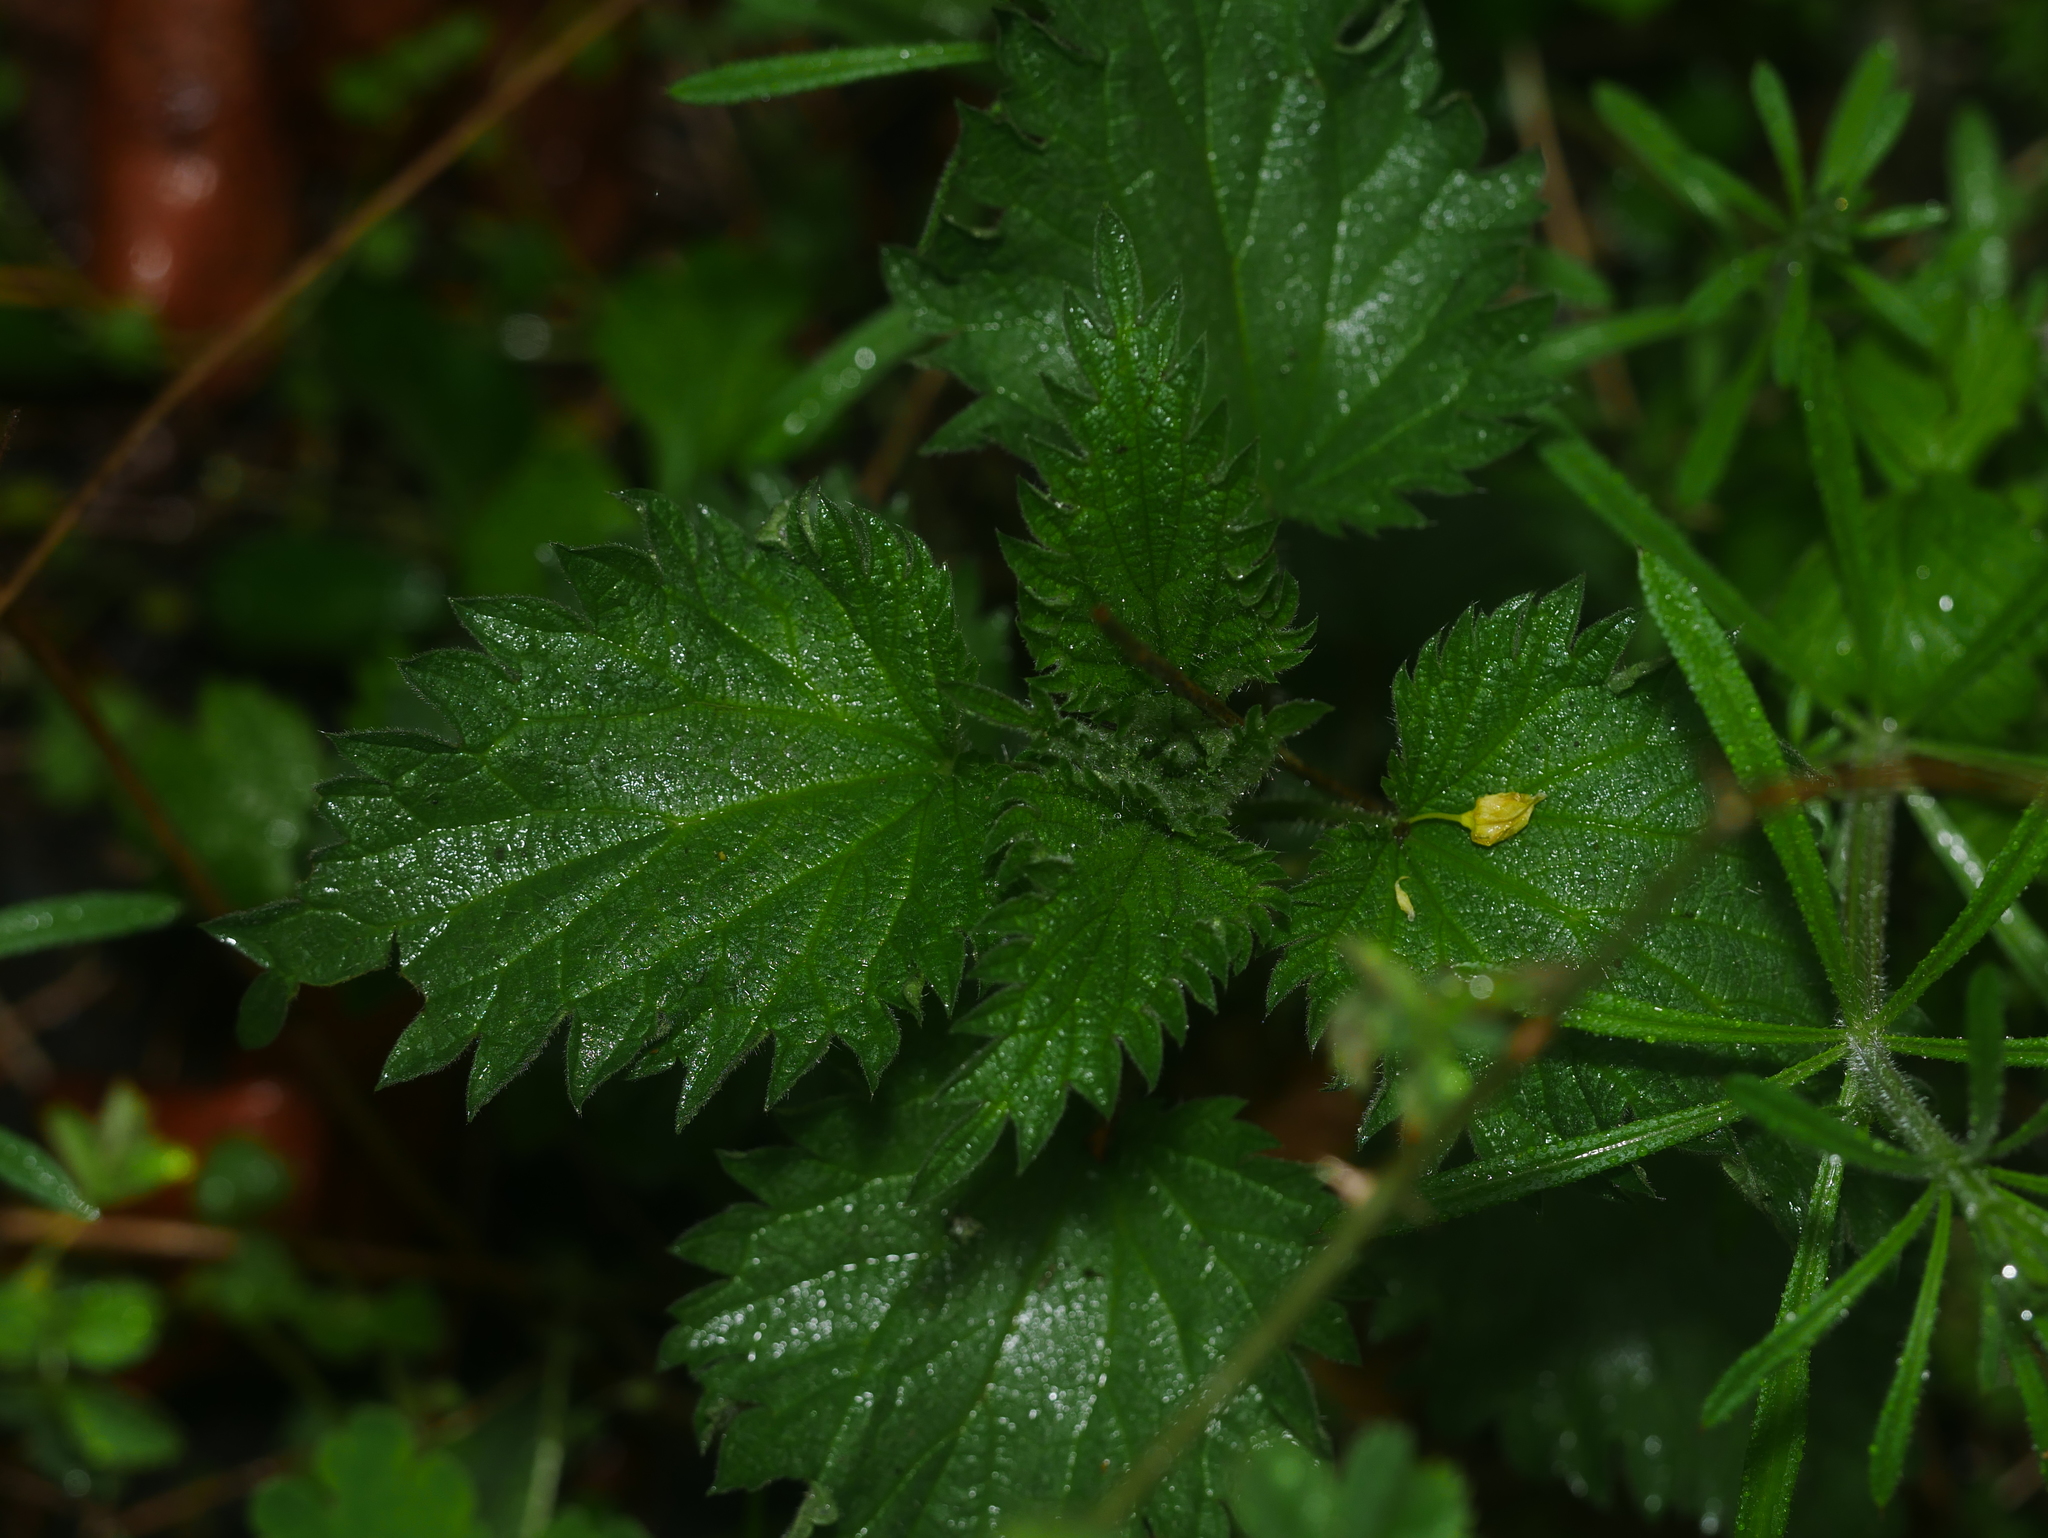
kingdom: Plantae
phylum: Tracheophyta
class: Magnoliopsida
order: Rosales
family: Urticaceae
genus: Urtica
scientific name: Urtica dioica
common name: Common nettle
